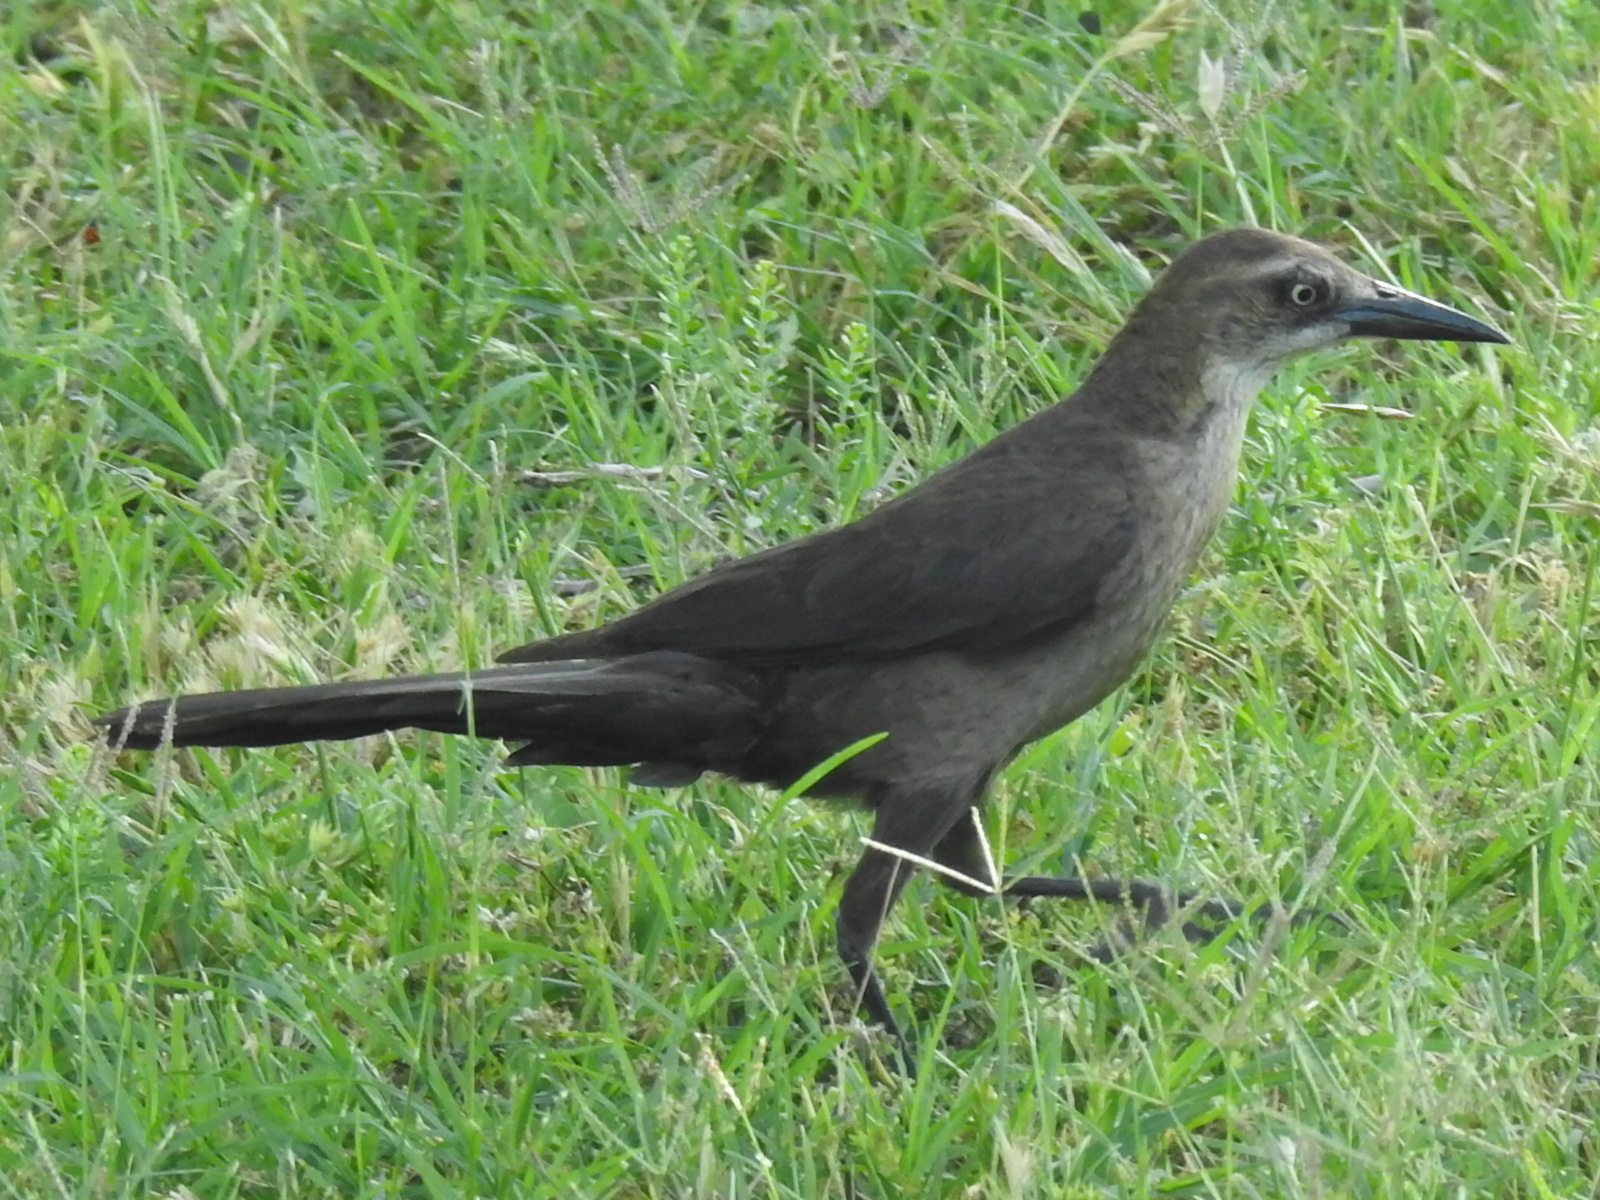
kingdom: Animalia
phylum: Chordata
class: Aves
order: Passeriformes
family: Icteridae
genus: Quiscalus
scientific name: Quiscalus mexicanus
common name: Great-tailed grackle
